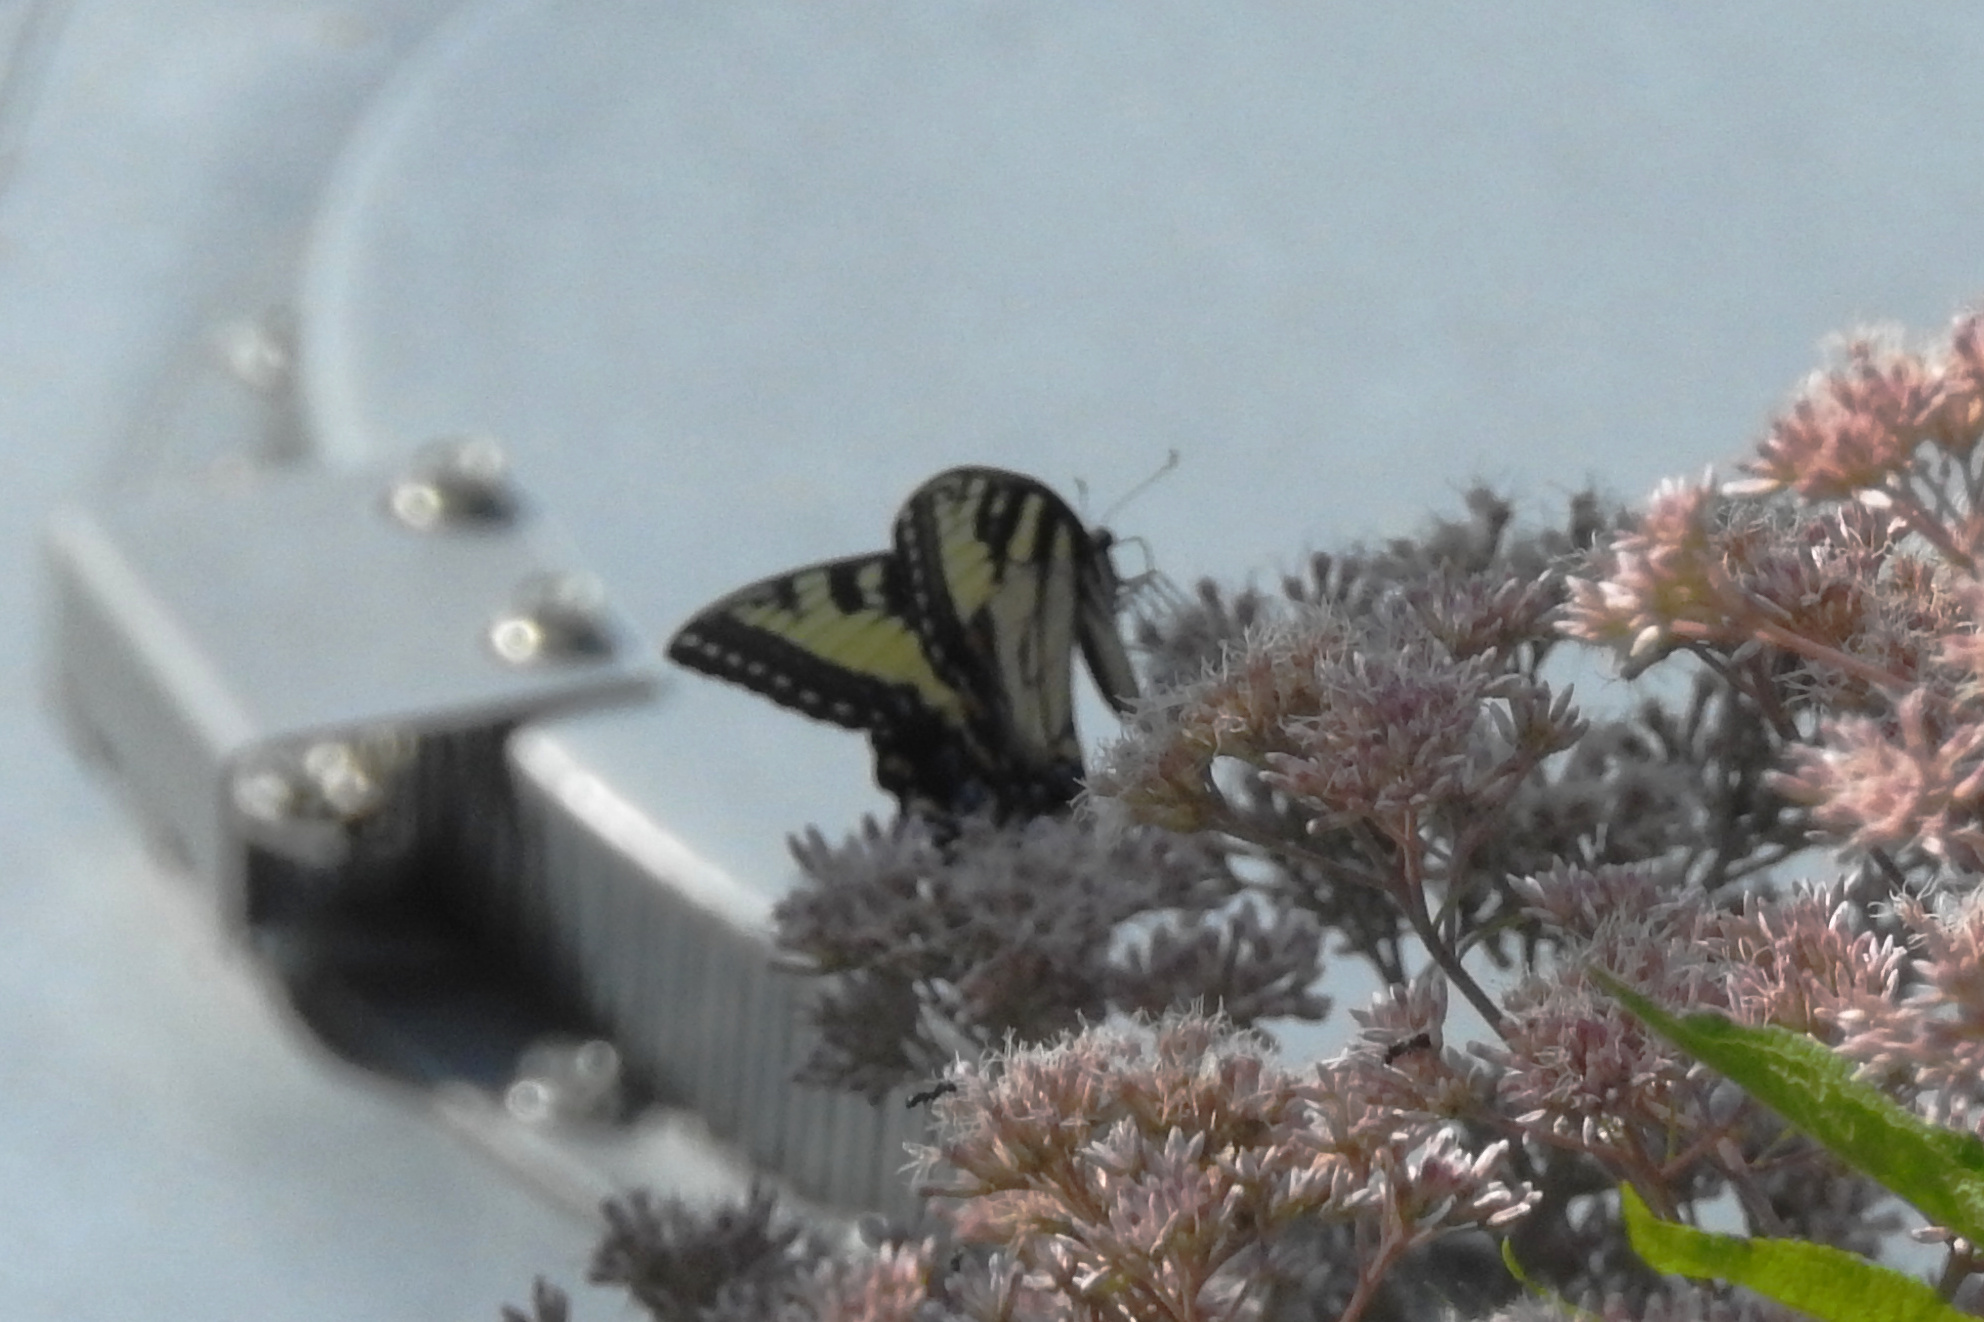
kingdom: Animalia
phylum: Arthropoda
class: Insecta
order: Lepidoptera
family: Papilionidae
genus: Papilio
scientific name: Papilio glaucus
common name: Tiger swallowtail
